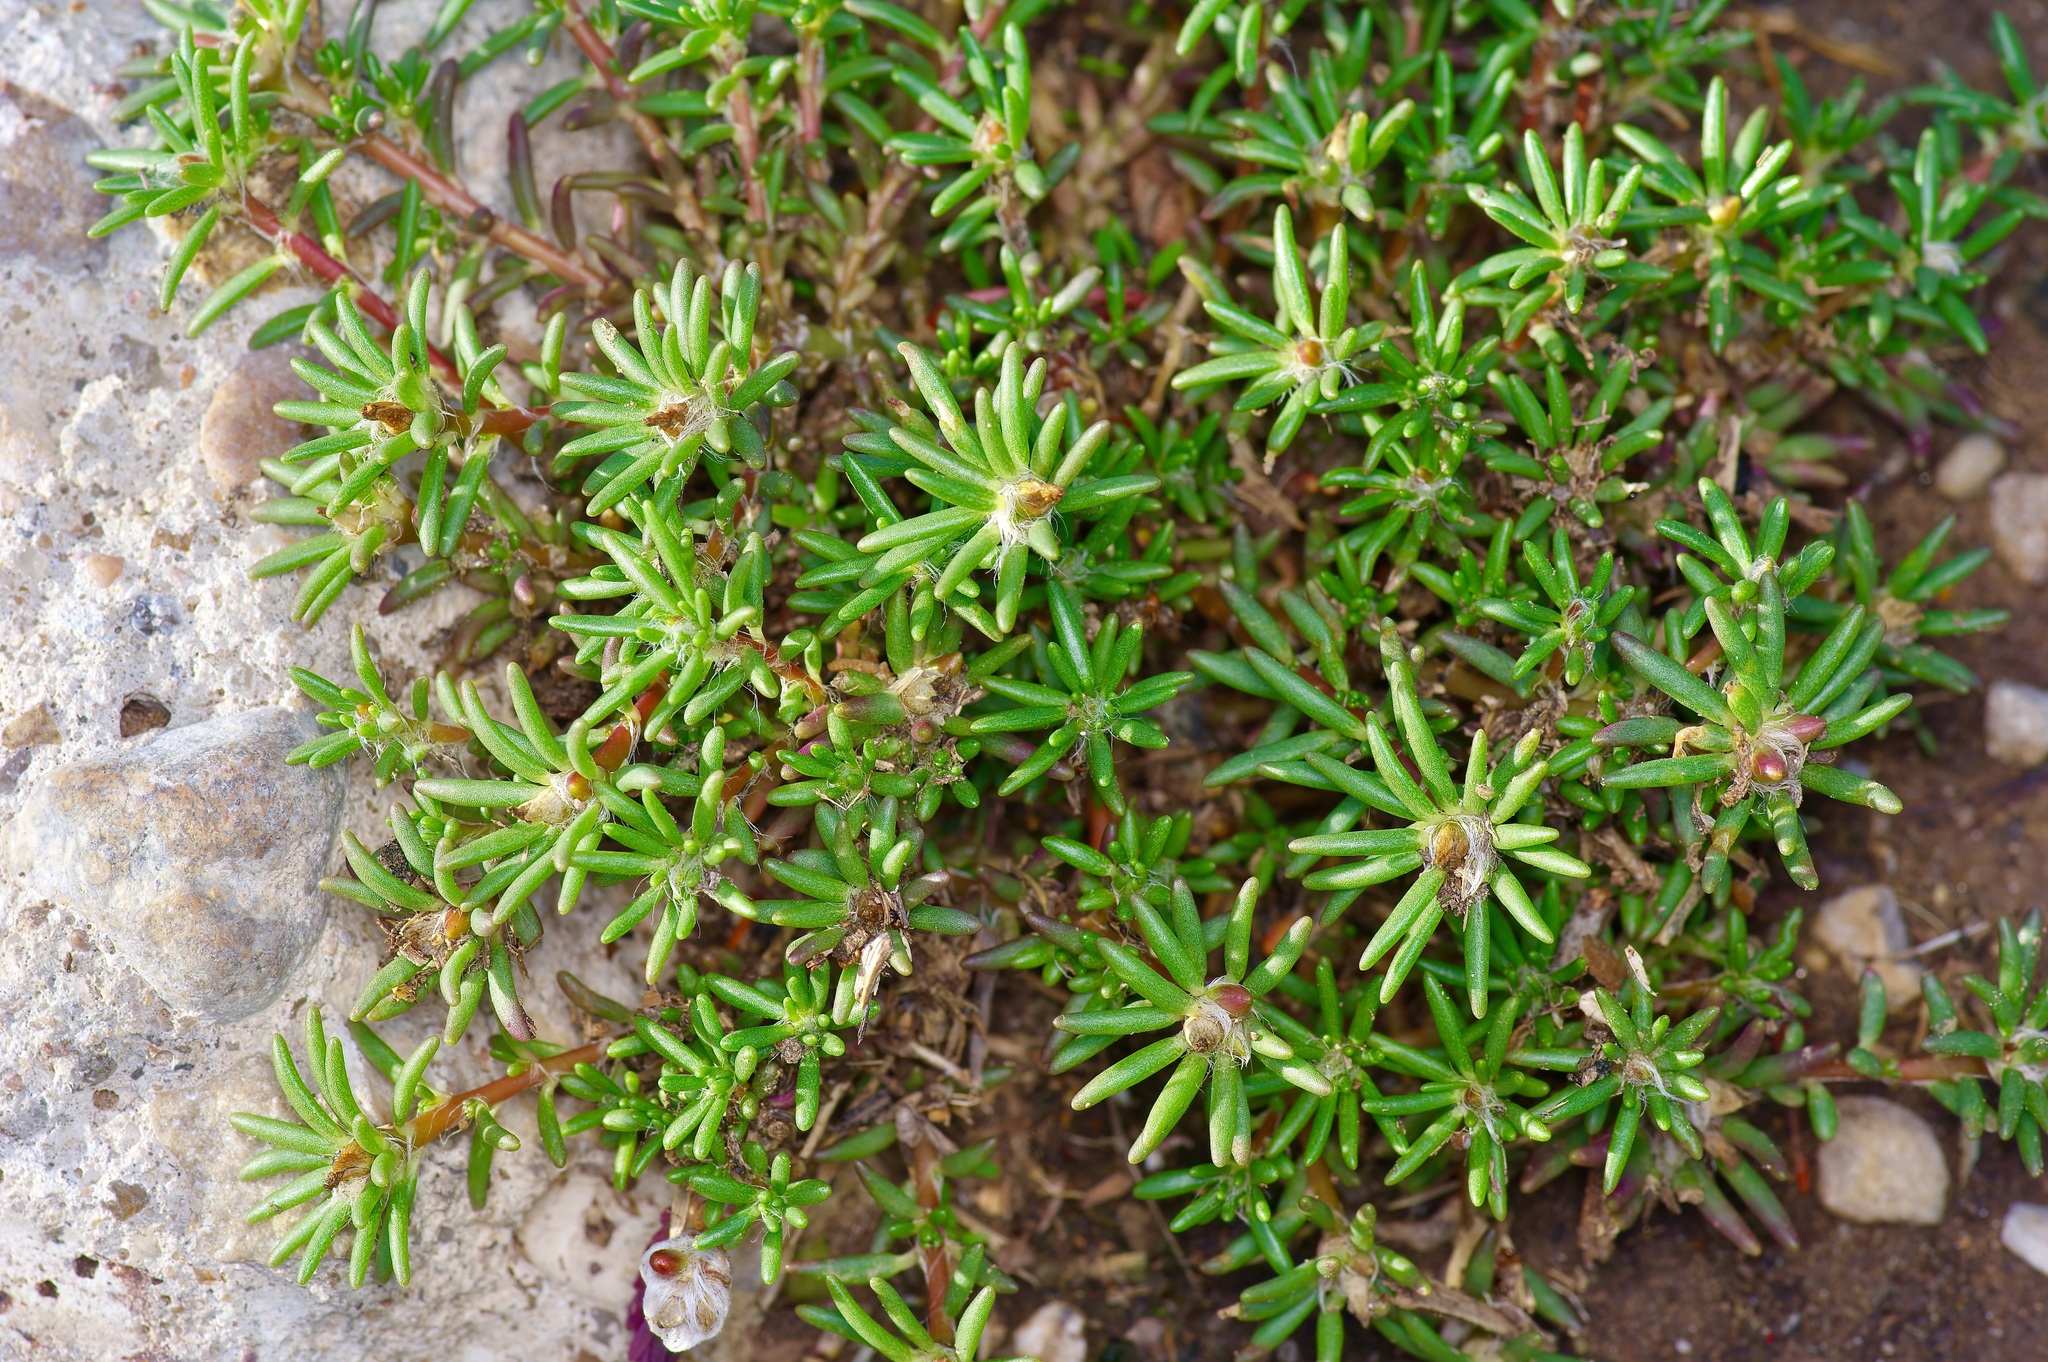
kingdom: Plantae
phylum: Tracheophyta
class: Magnoliopsida
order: Caryophyllales
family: Portulacaceae
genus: Portulaca
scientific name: Portulaca pilosa
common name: Kiss me quick
